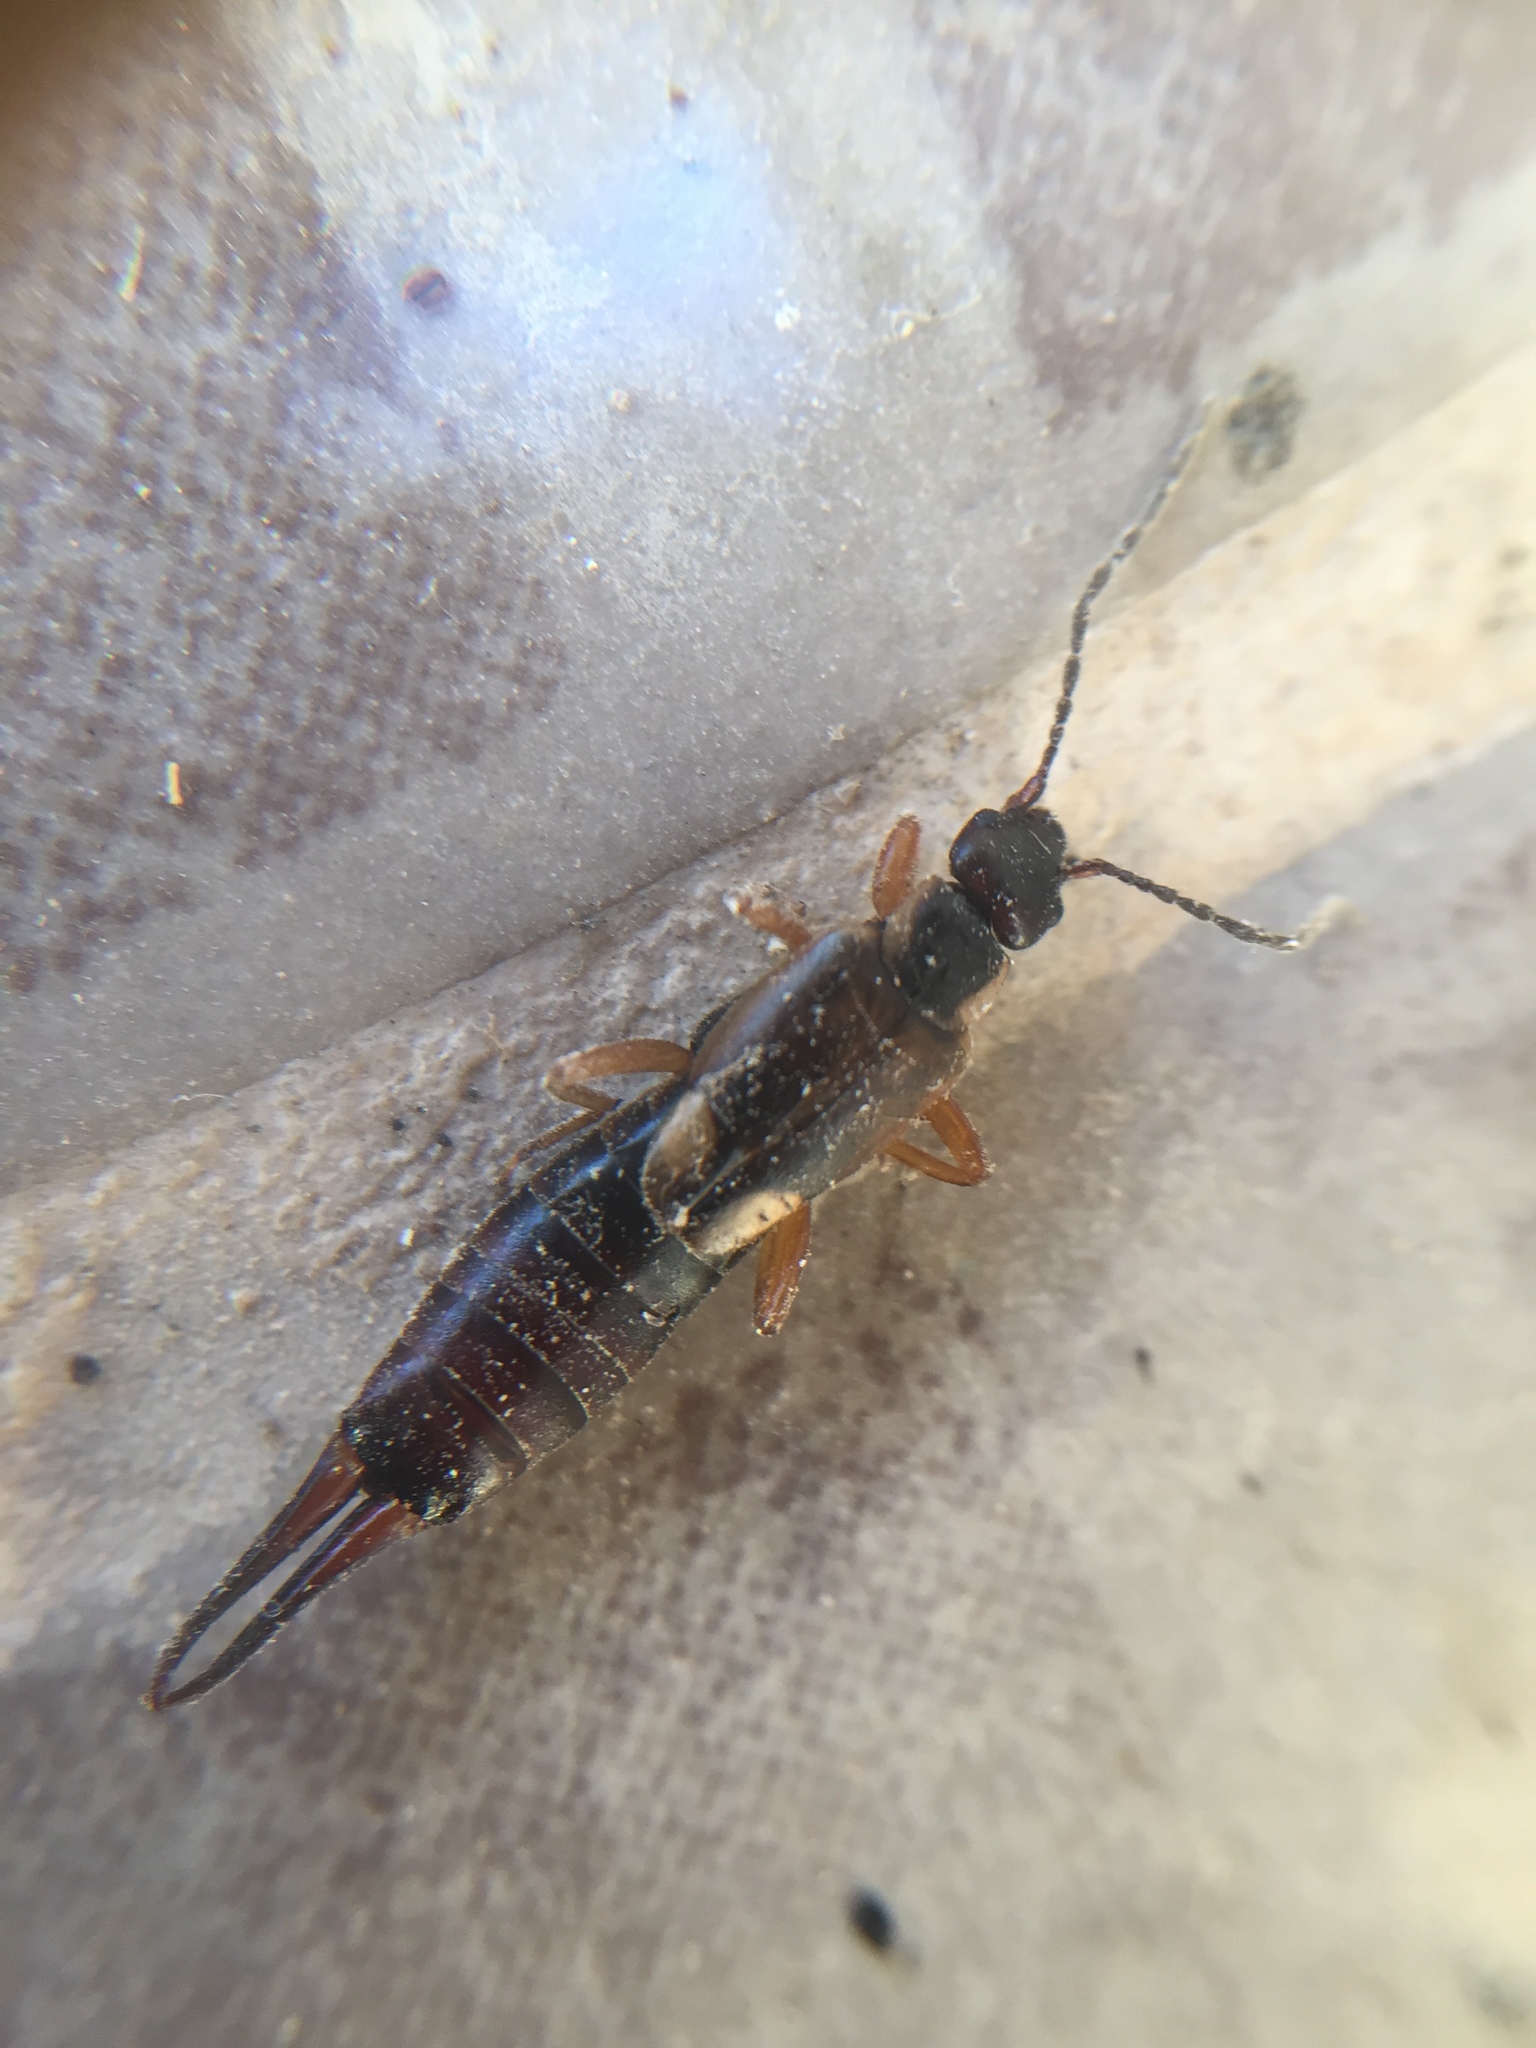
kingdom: Animalia
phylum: Arthropoda
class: Insecta
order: Dermaptera
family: Forficulidae
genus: Forficula
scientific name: Forficula
